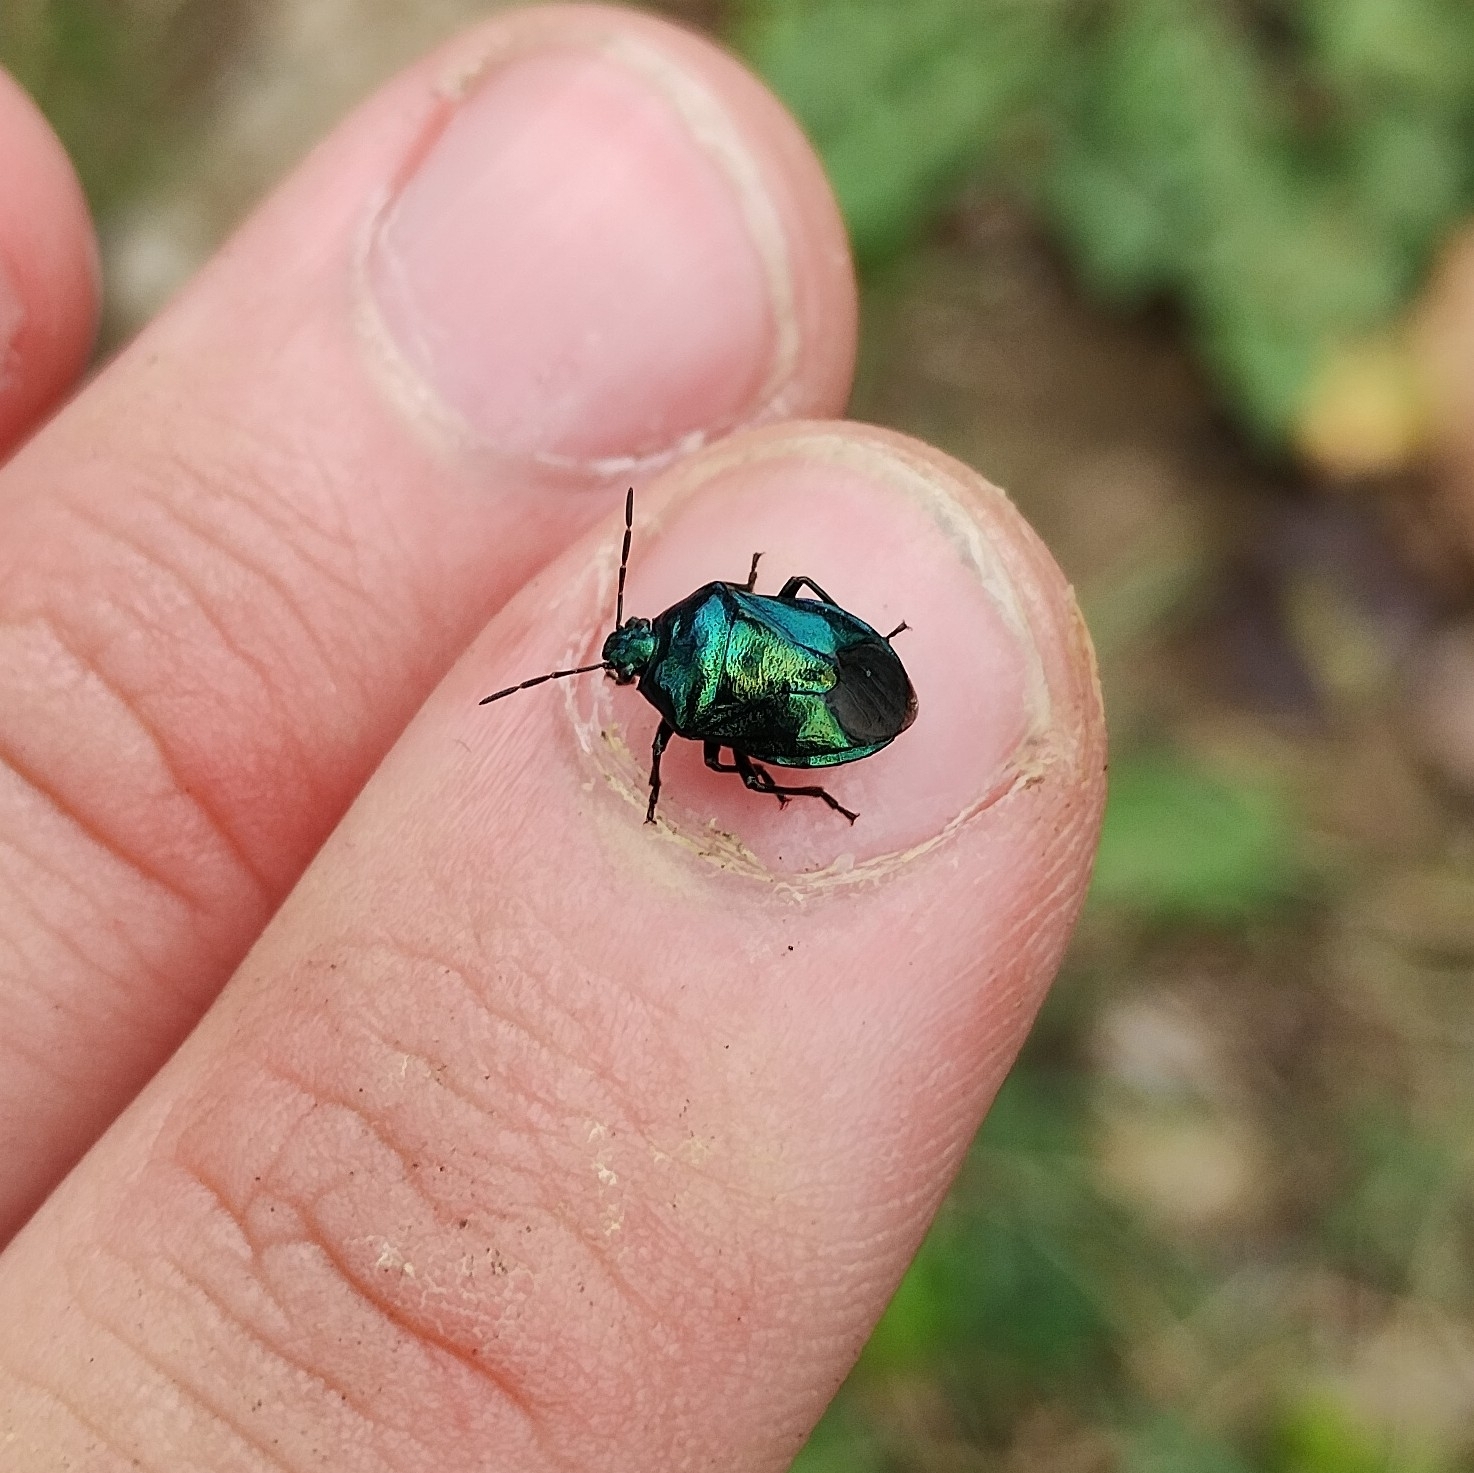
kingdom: Animalia
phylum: Arthropoda
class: Insecta
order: Hemiptera
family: Pentatomidae
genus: Zicrona
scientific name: Zicrona caerulea
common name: Blue shieldbug
